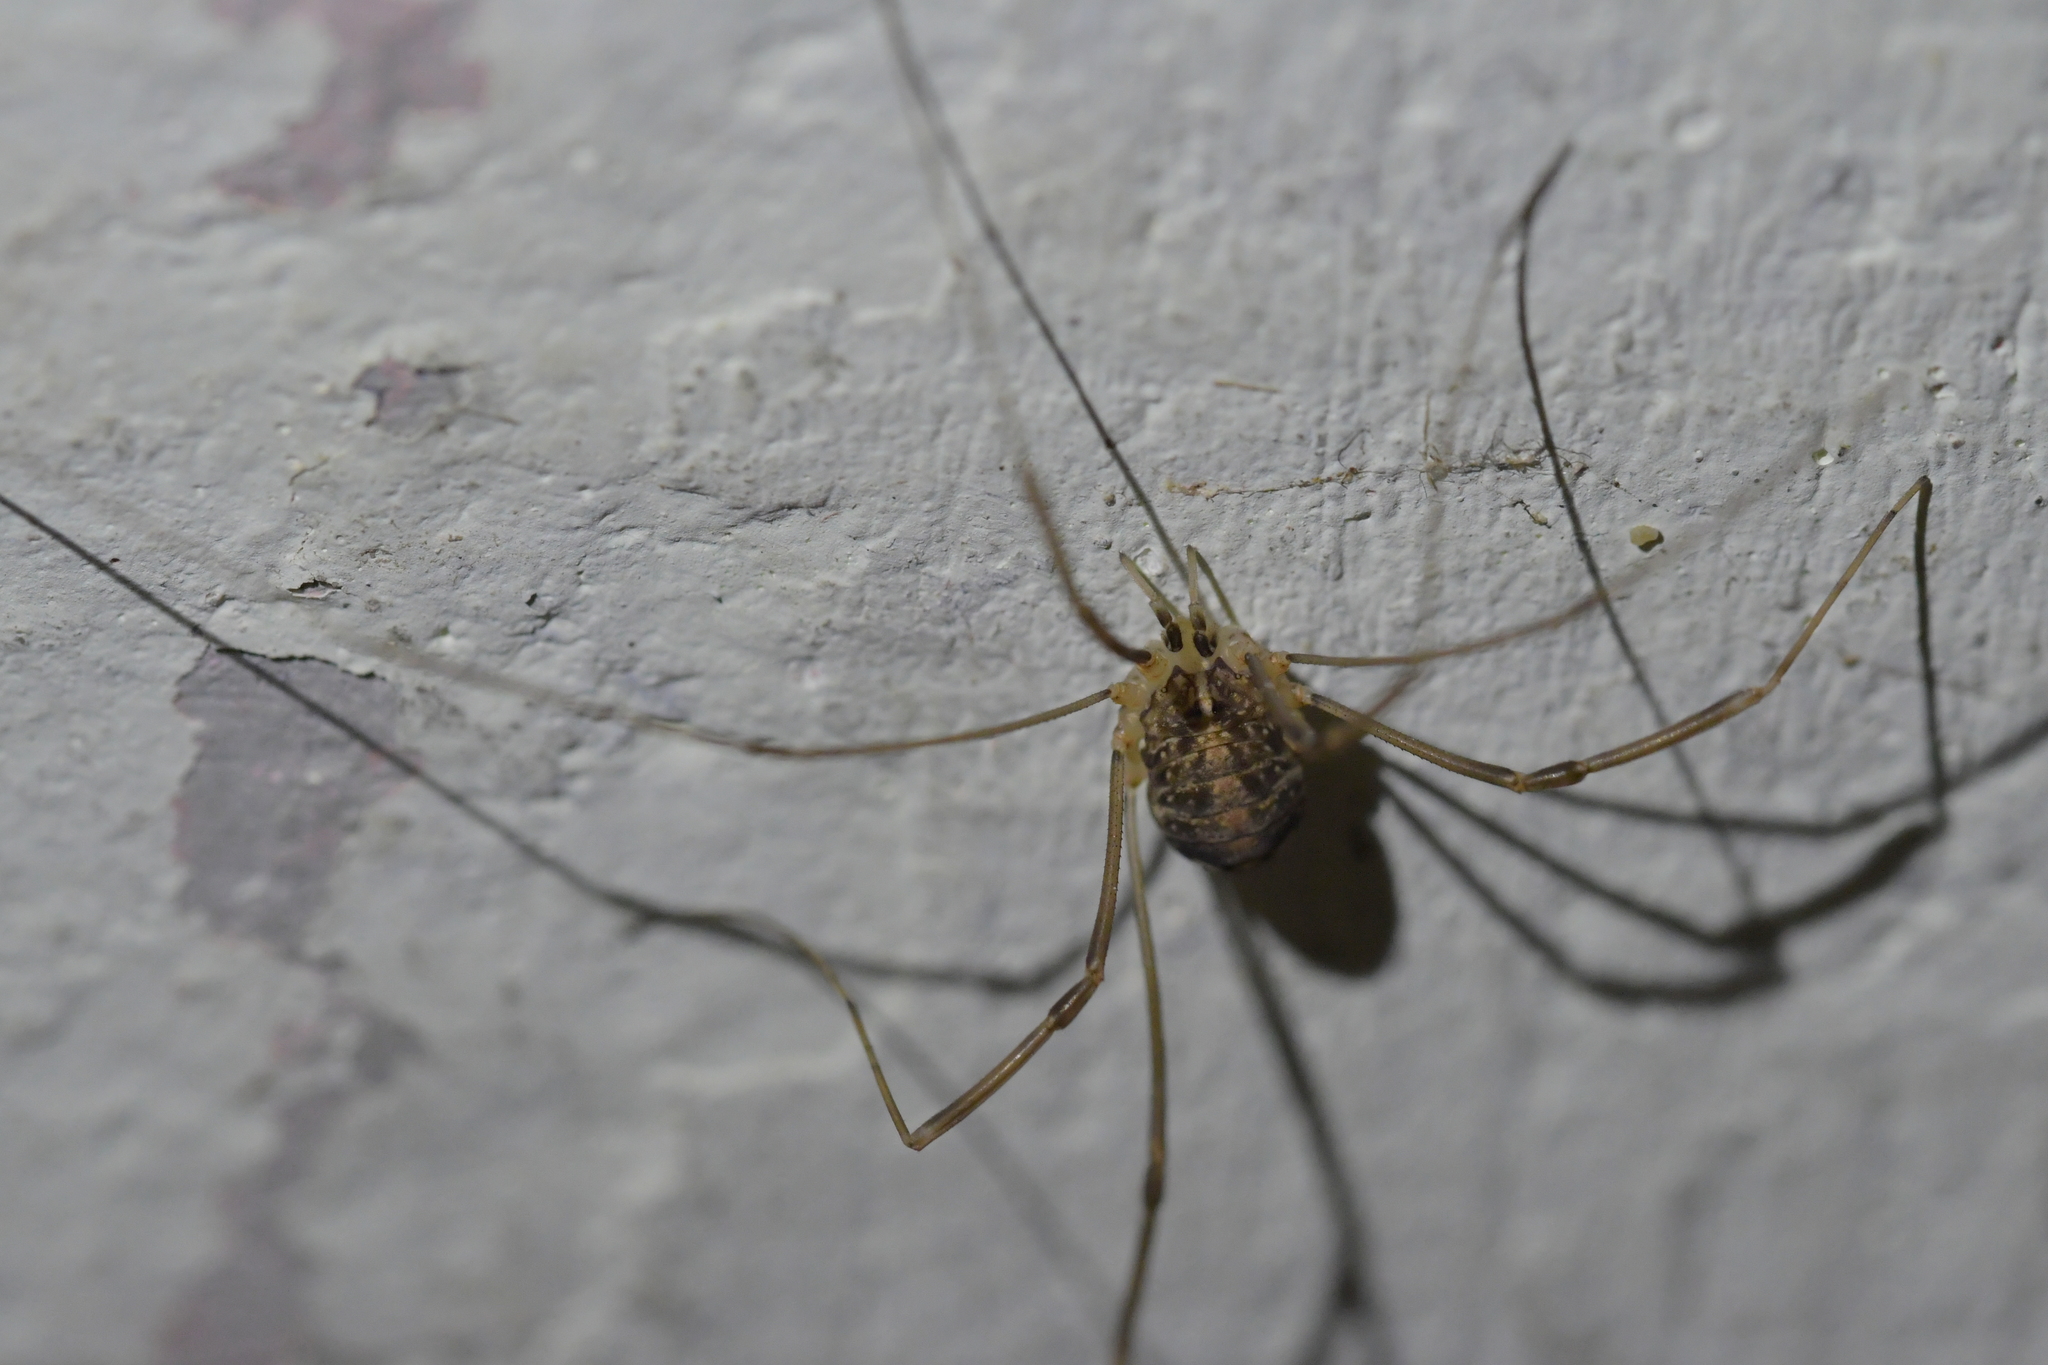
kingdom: Animalia
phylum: Arthropoda
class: Arachnida
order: Opiliones
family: Sclerosomatidae
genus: Nelima
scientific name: Nelima doriae
